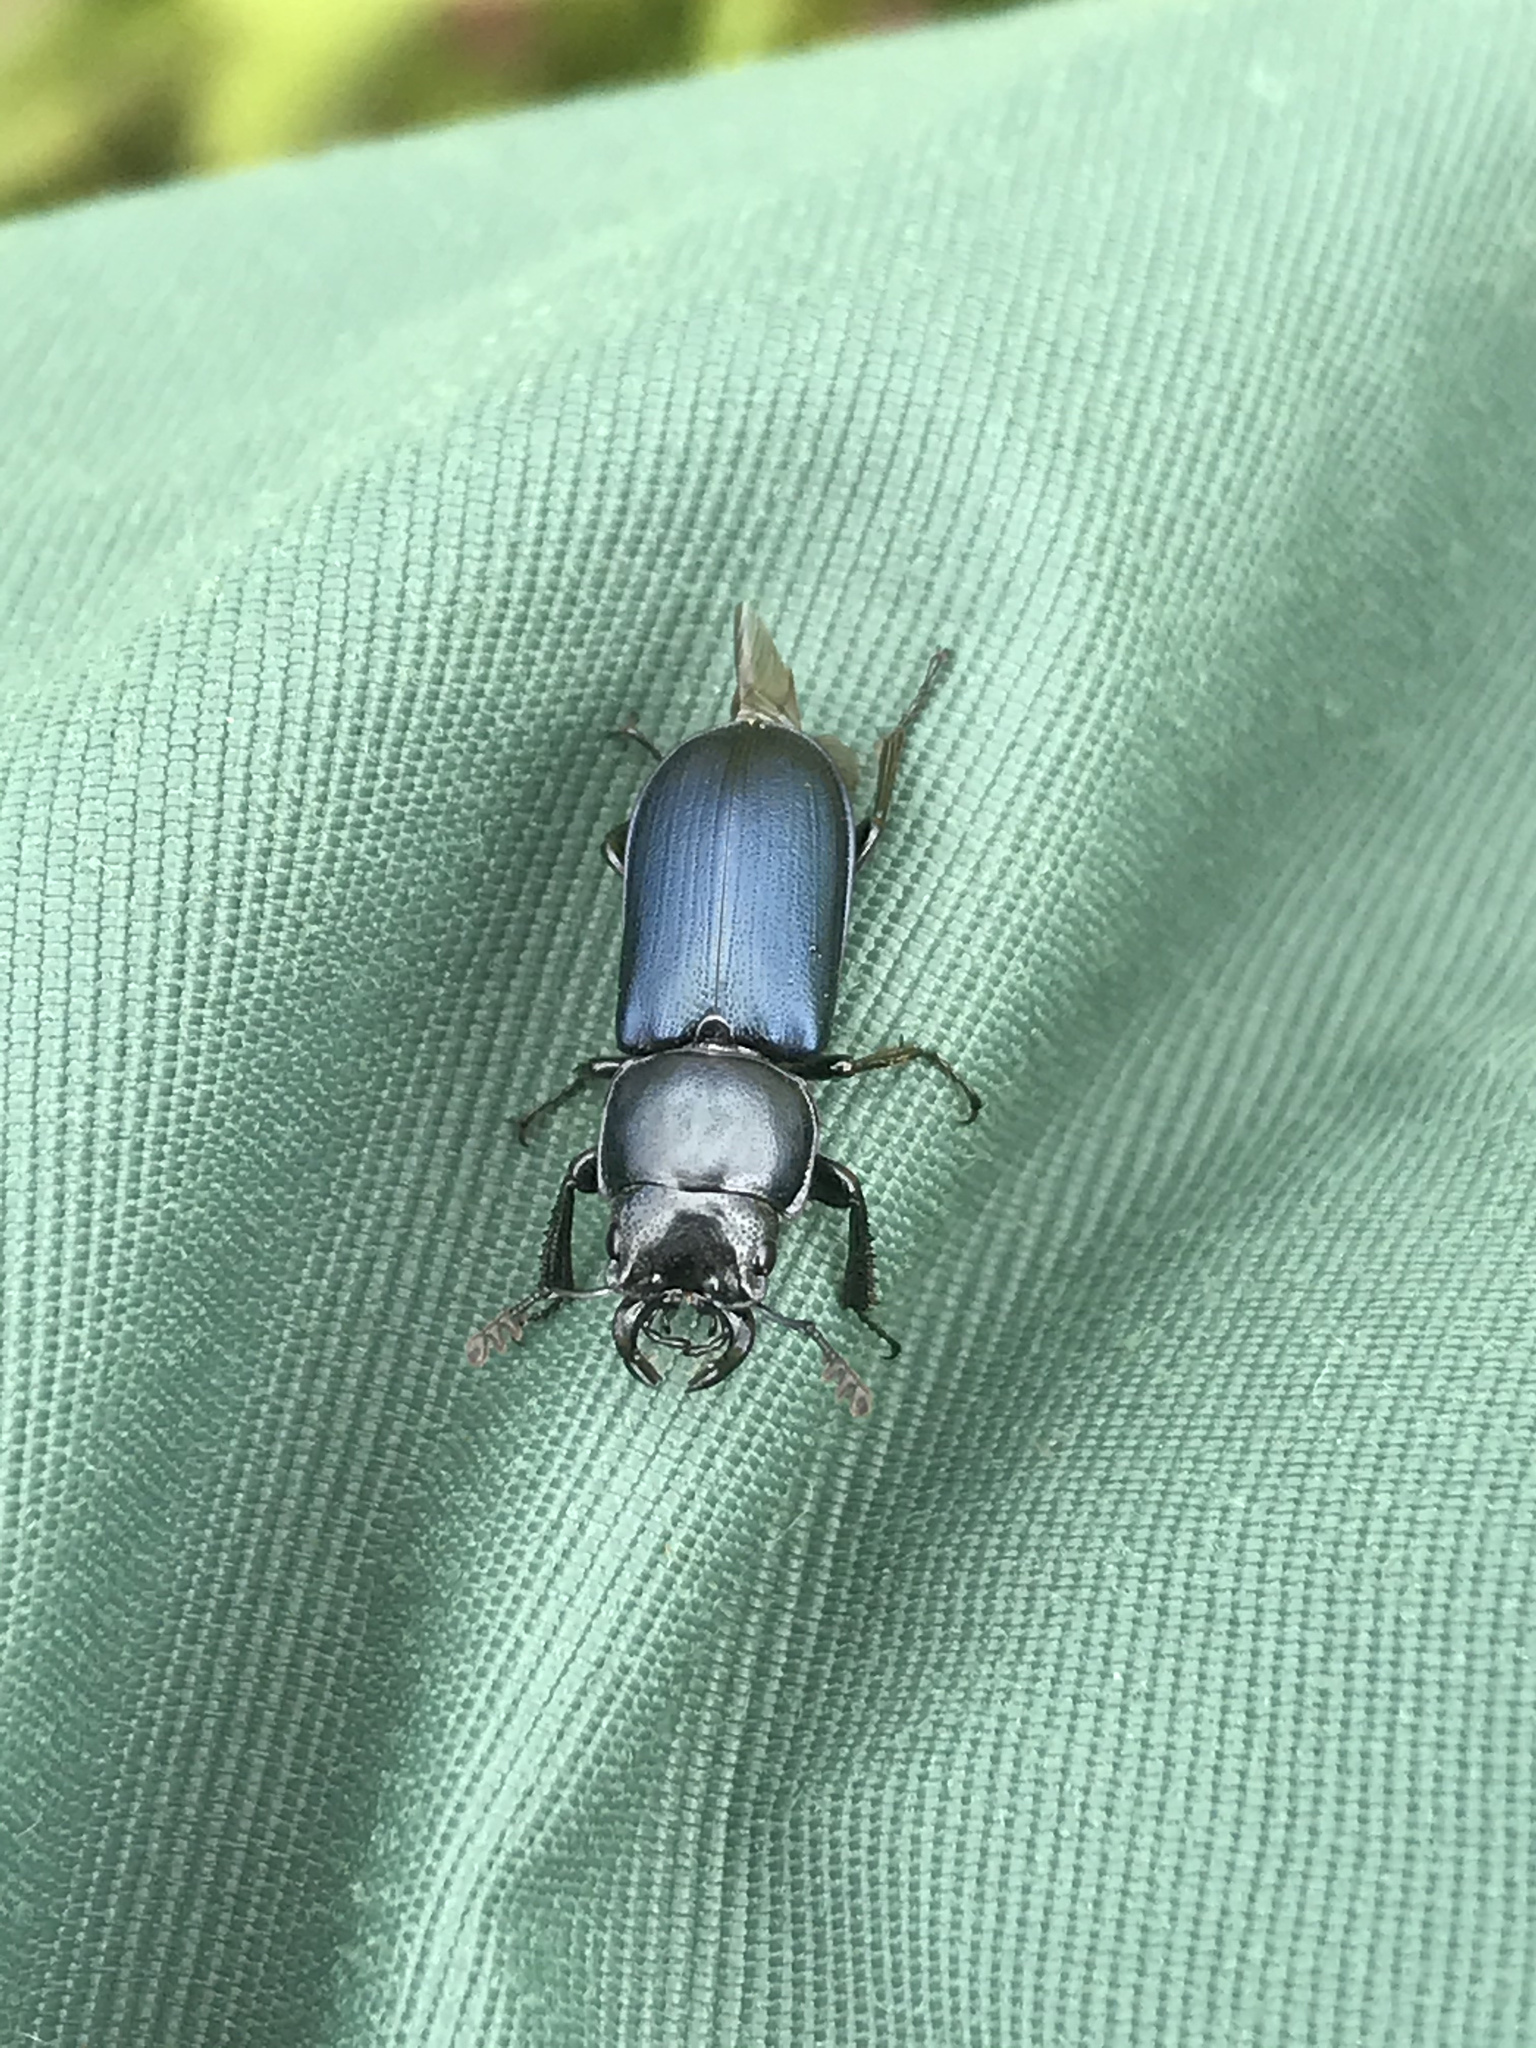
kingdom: Animalia
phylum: Arthropoda
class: Insecta
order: Coleoptera
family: Lucanidae
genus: Platycerus
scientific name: Platycerus oregonensis
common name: Oregon stag beetle
